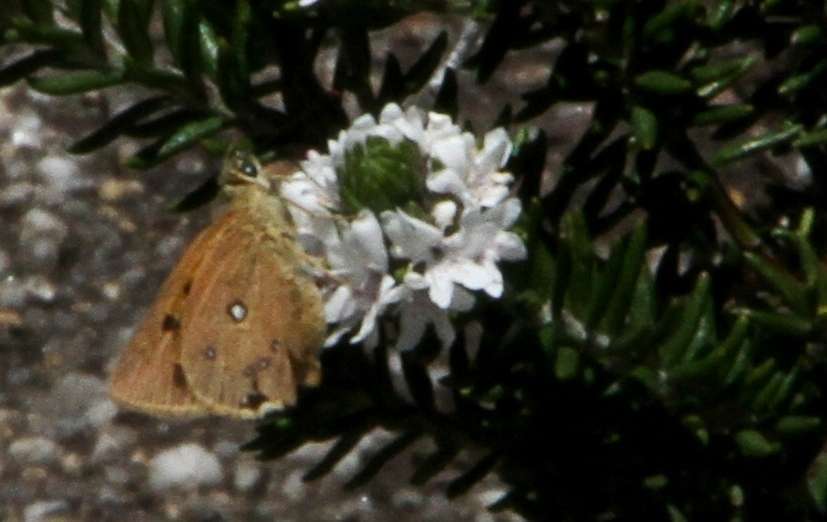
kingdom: Animalia
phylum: Arthropoda
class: Insecta
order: Lepidoptera
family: Hesperiidae
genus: Trapezites
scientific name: Trapezites eliena
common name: Eliena skipper
